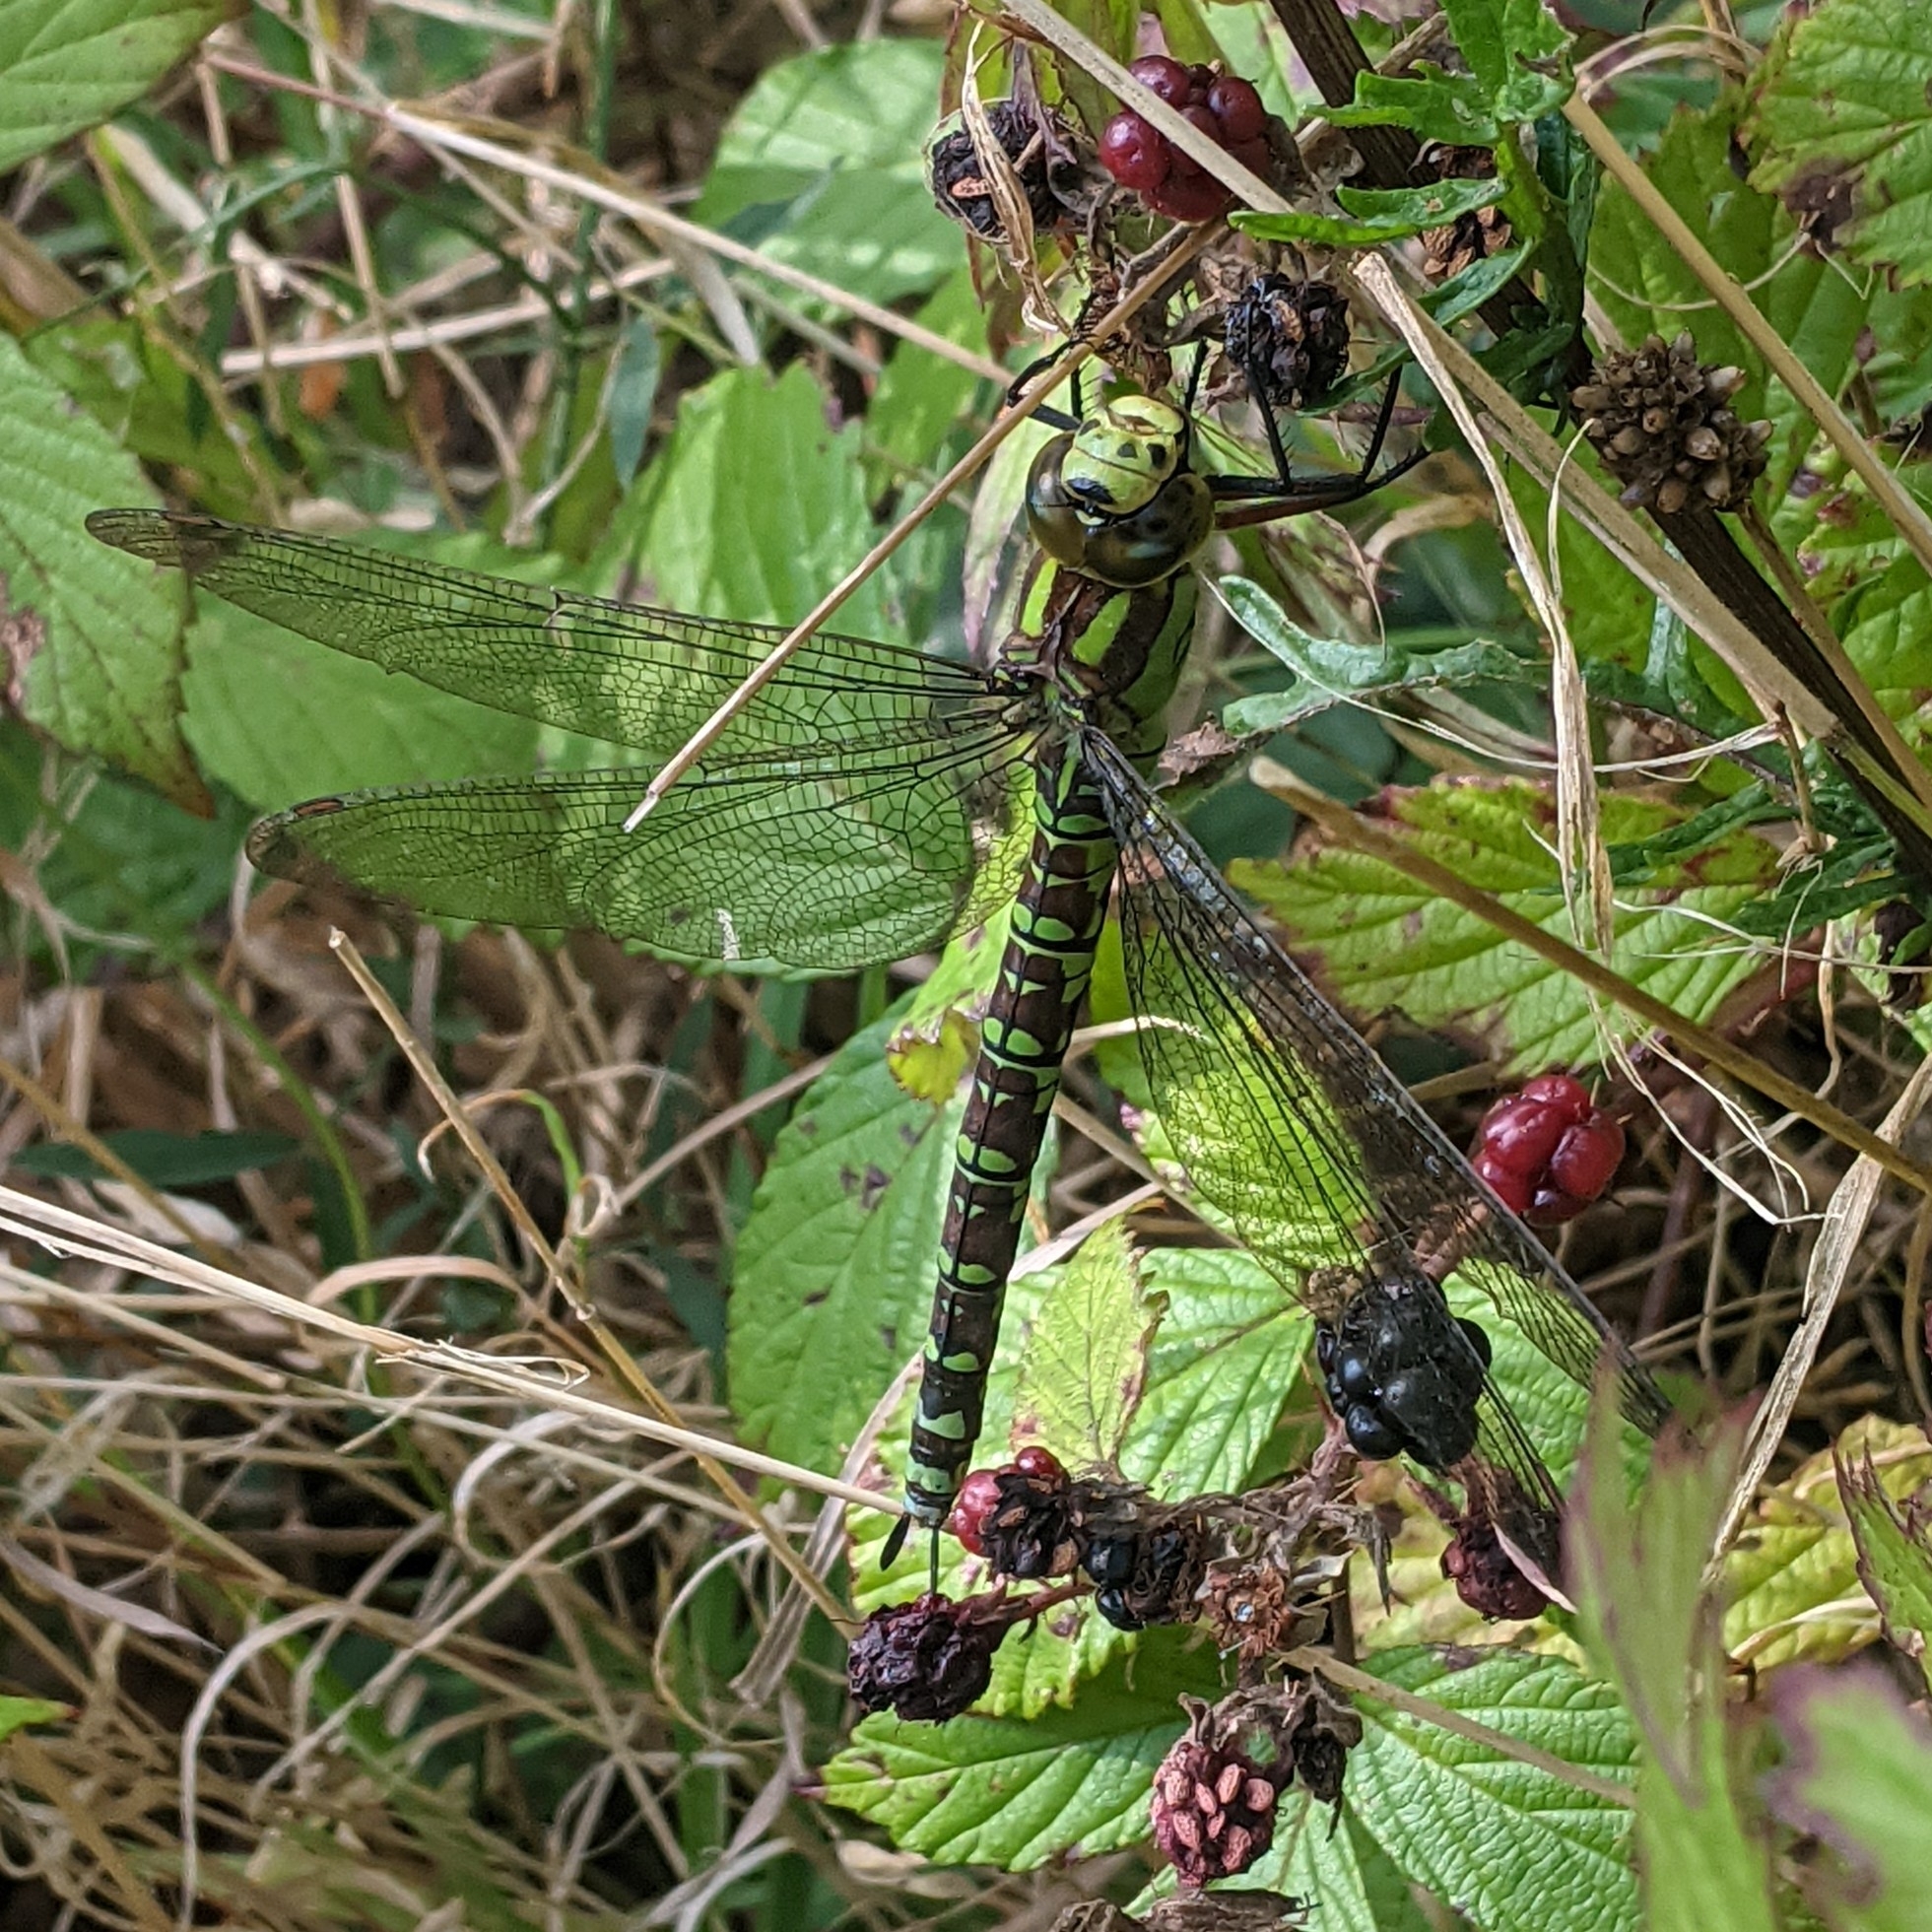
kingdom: Animalia
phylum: Arthropoda
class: Insecta
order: Odonata
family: Aeshnidae
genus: Aeshna
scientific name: Aeshna cyanea
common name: Southern hawker
